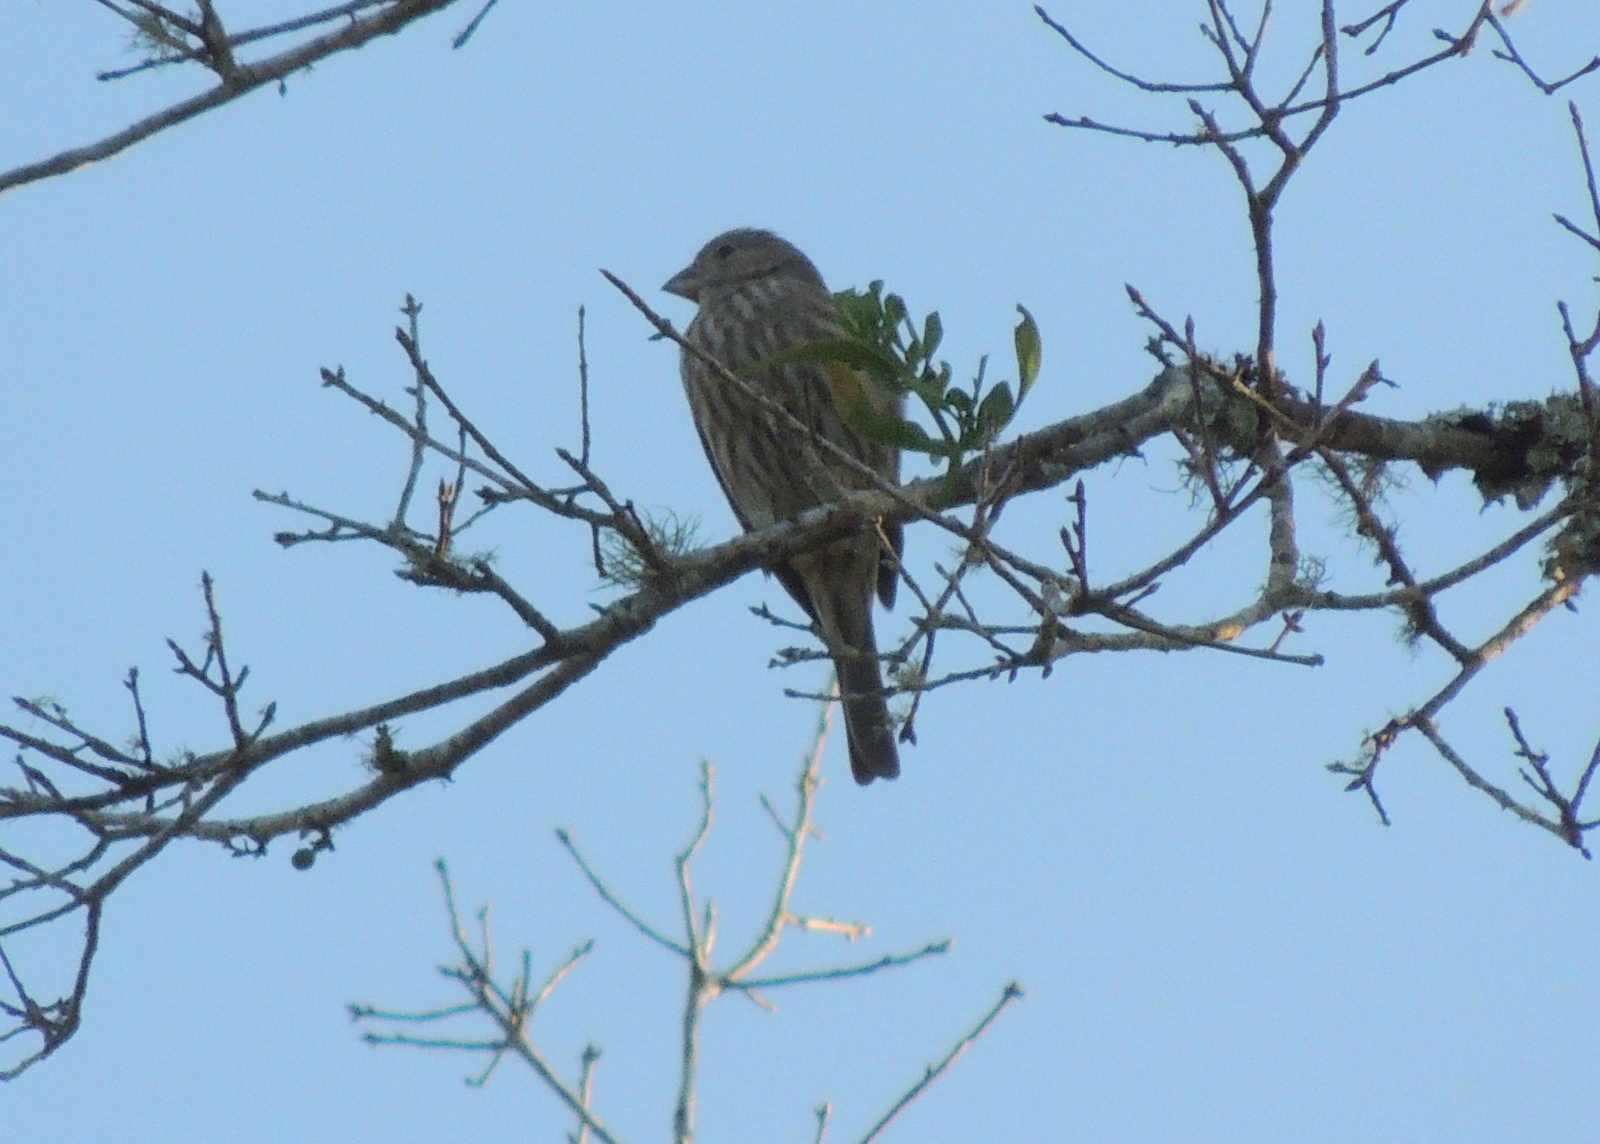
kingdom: Animalia
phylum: Chordata
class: Aves
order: Passeriformes
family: Fringillidae
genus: Haemorhous
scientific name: Haemorhous mexicanus
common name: House finch
